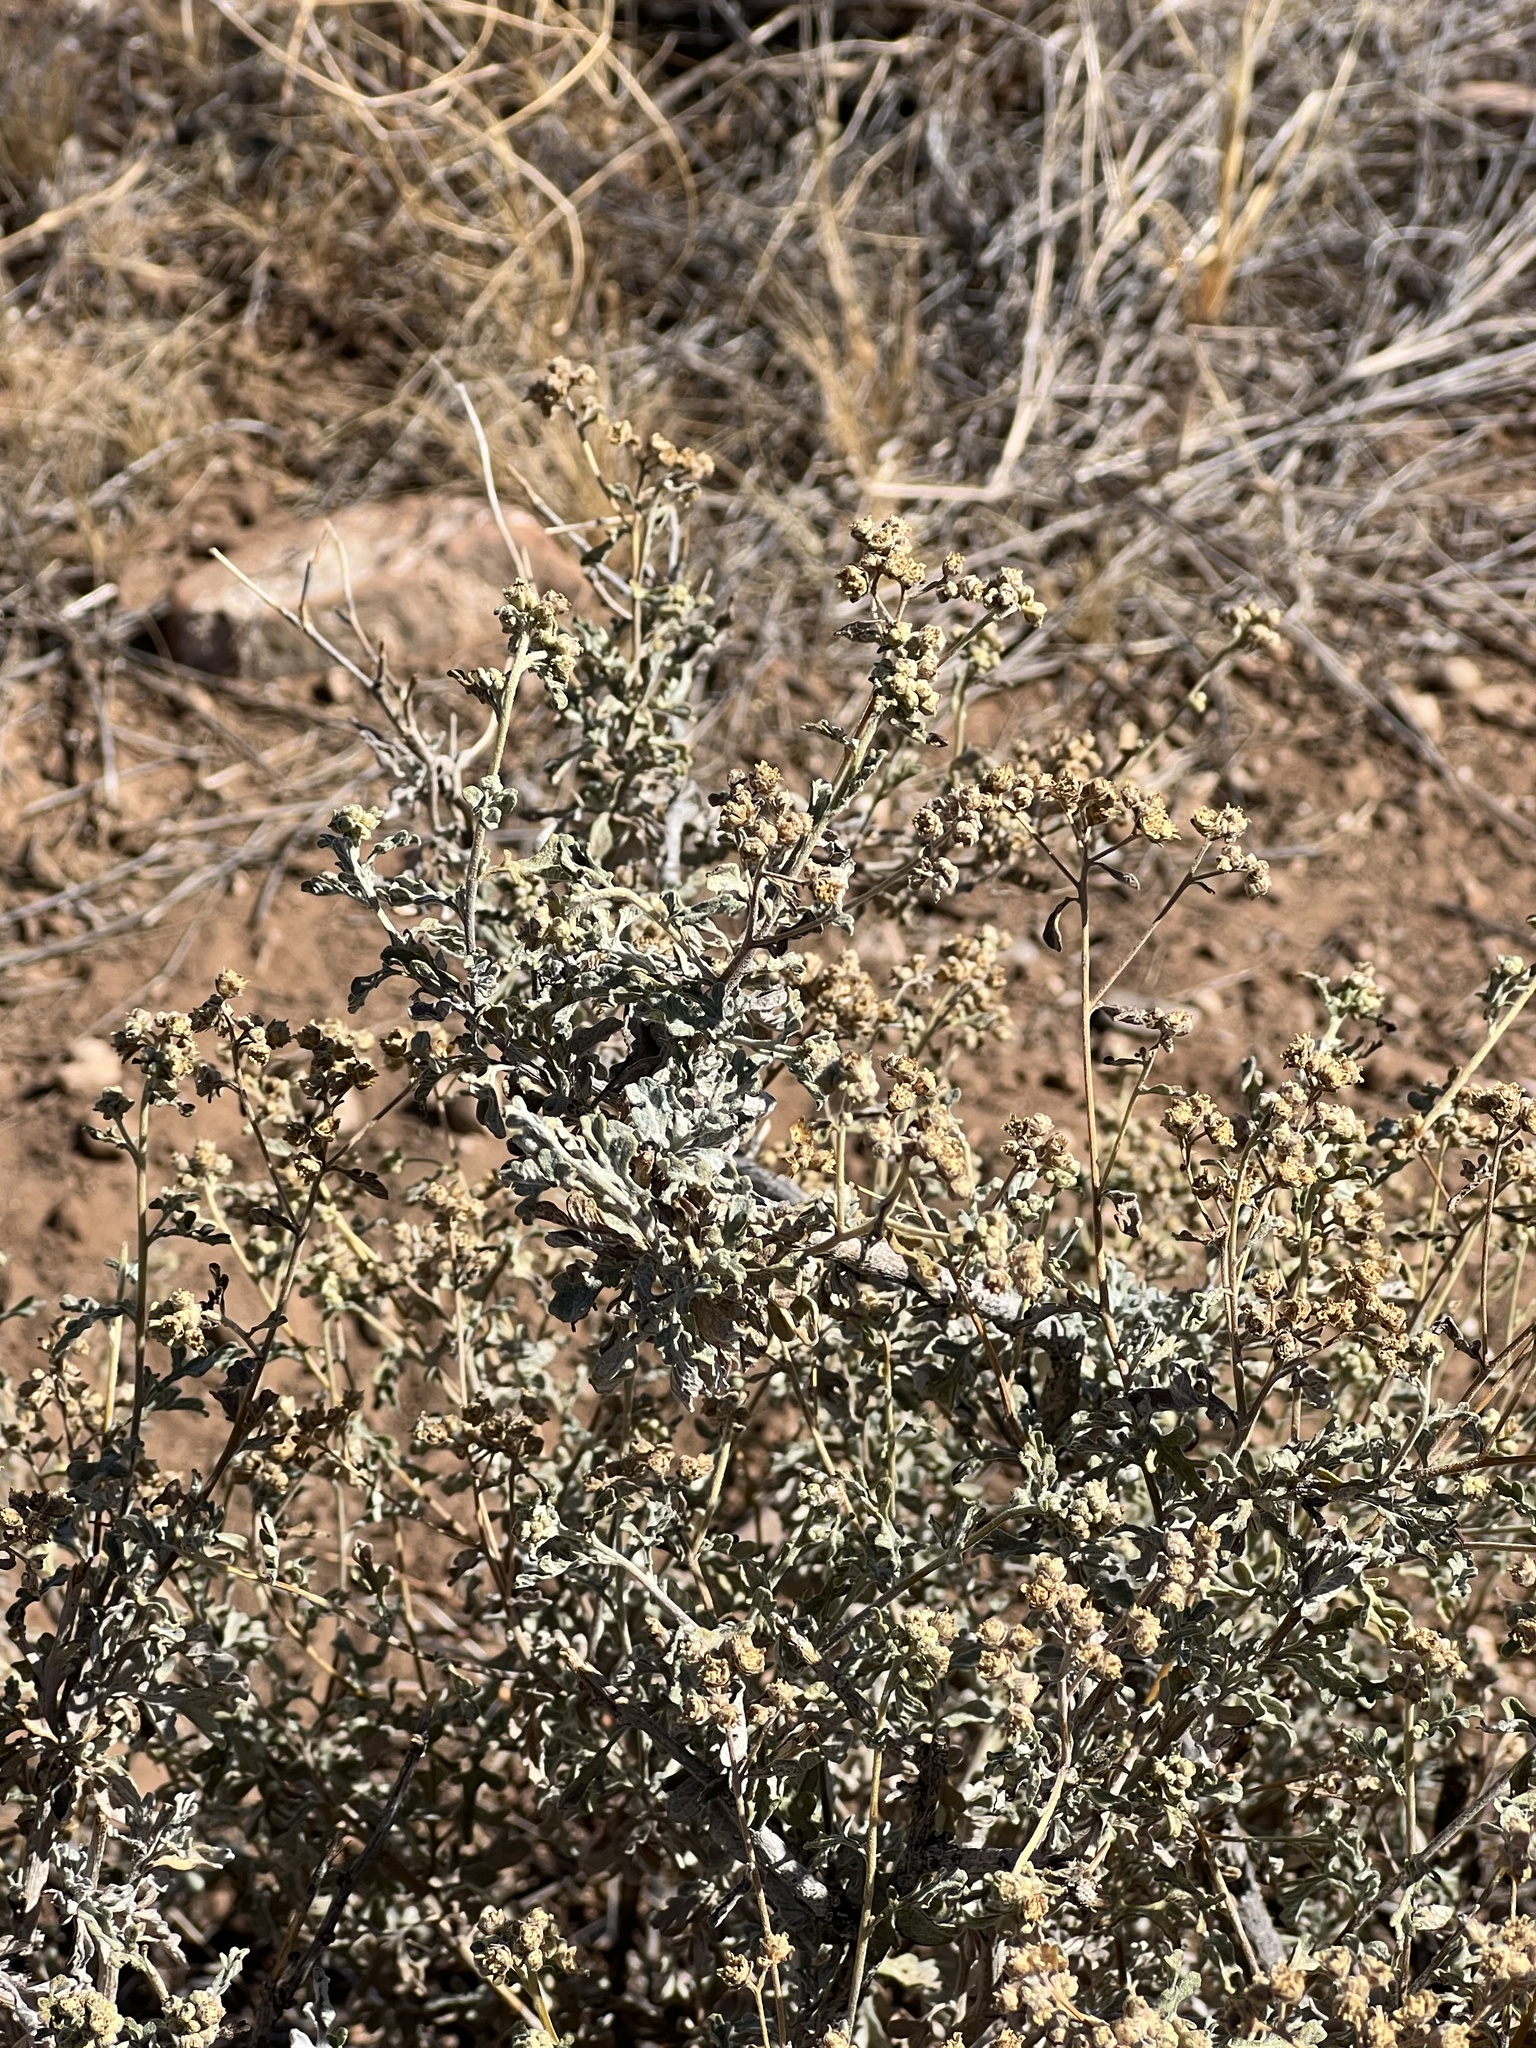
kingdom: Plantae
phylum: Tracheophyta
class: Magnoliopsida
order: Asterales
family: Asteraceae
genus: Parthenium
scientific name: Parthenium incanum
